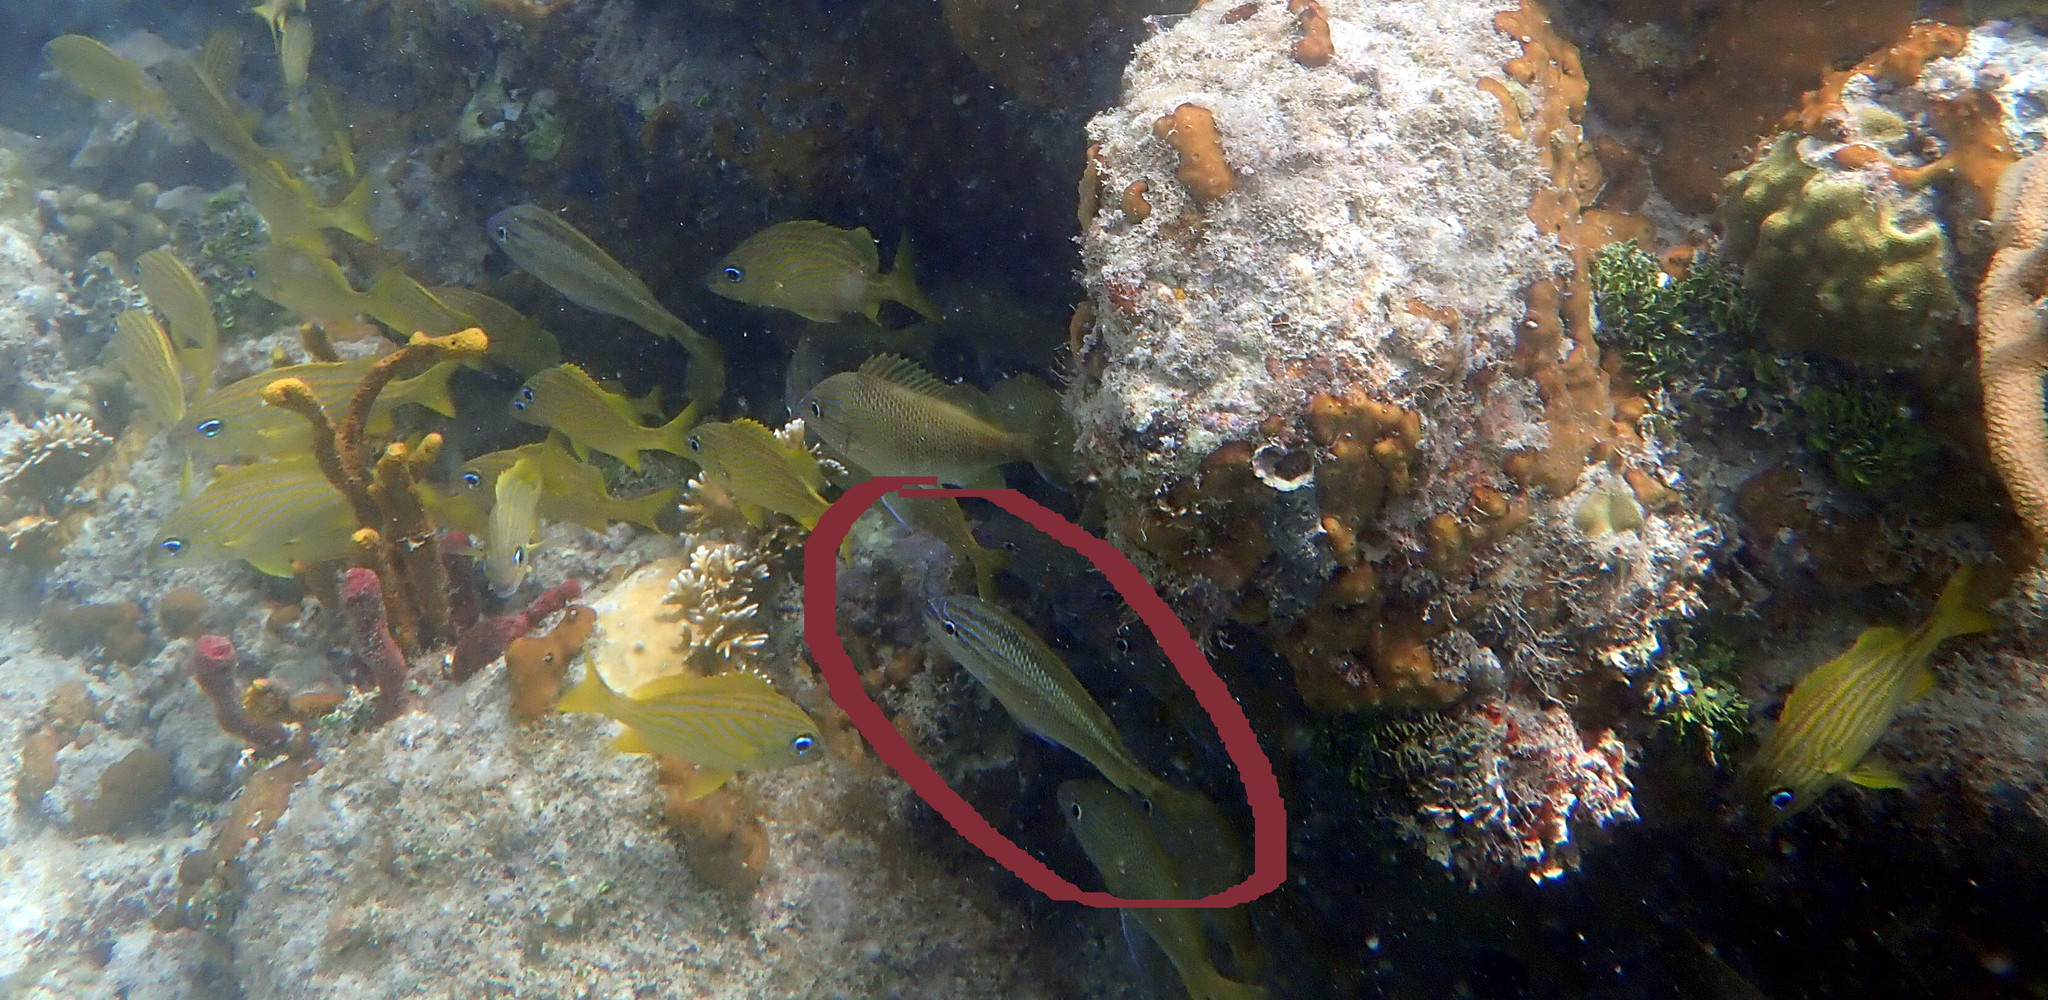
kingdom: Animalia
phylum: Chordata
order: Perciformes
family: Haemulidae
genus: Haemulon
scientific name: Haemulon plumierii
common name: White grunt
